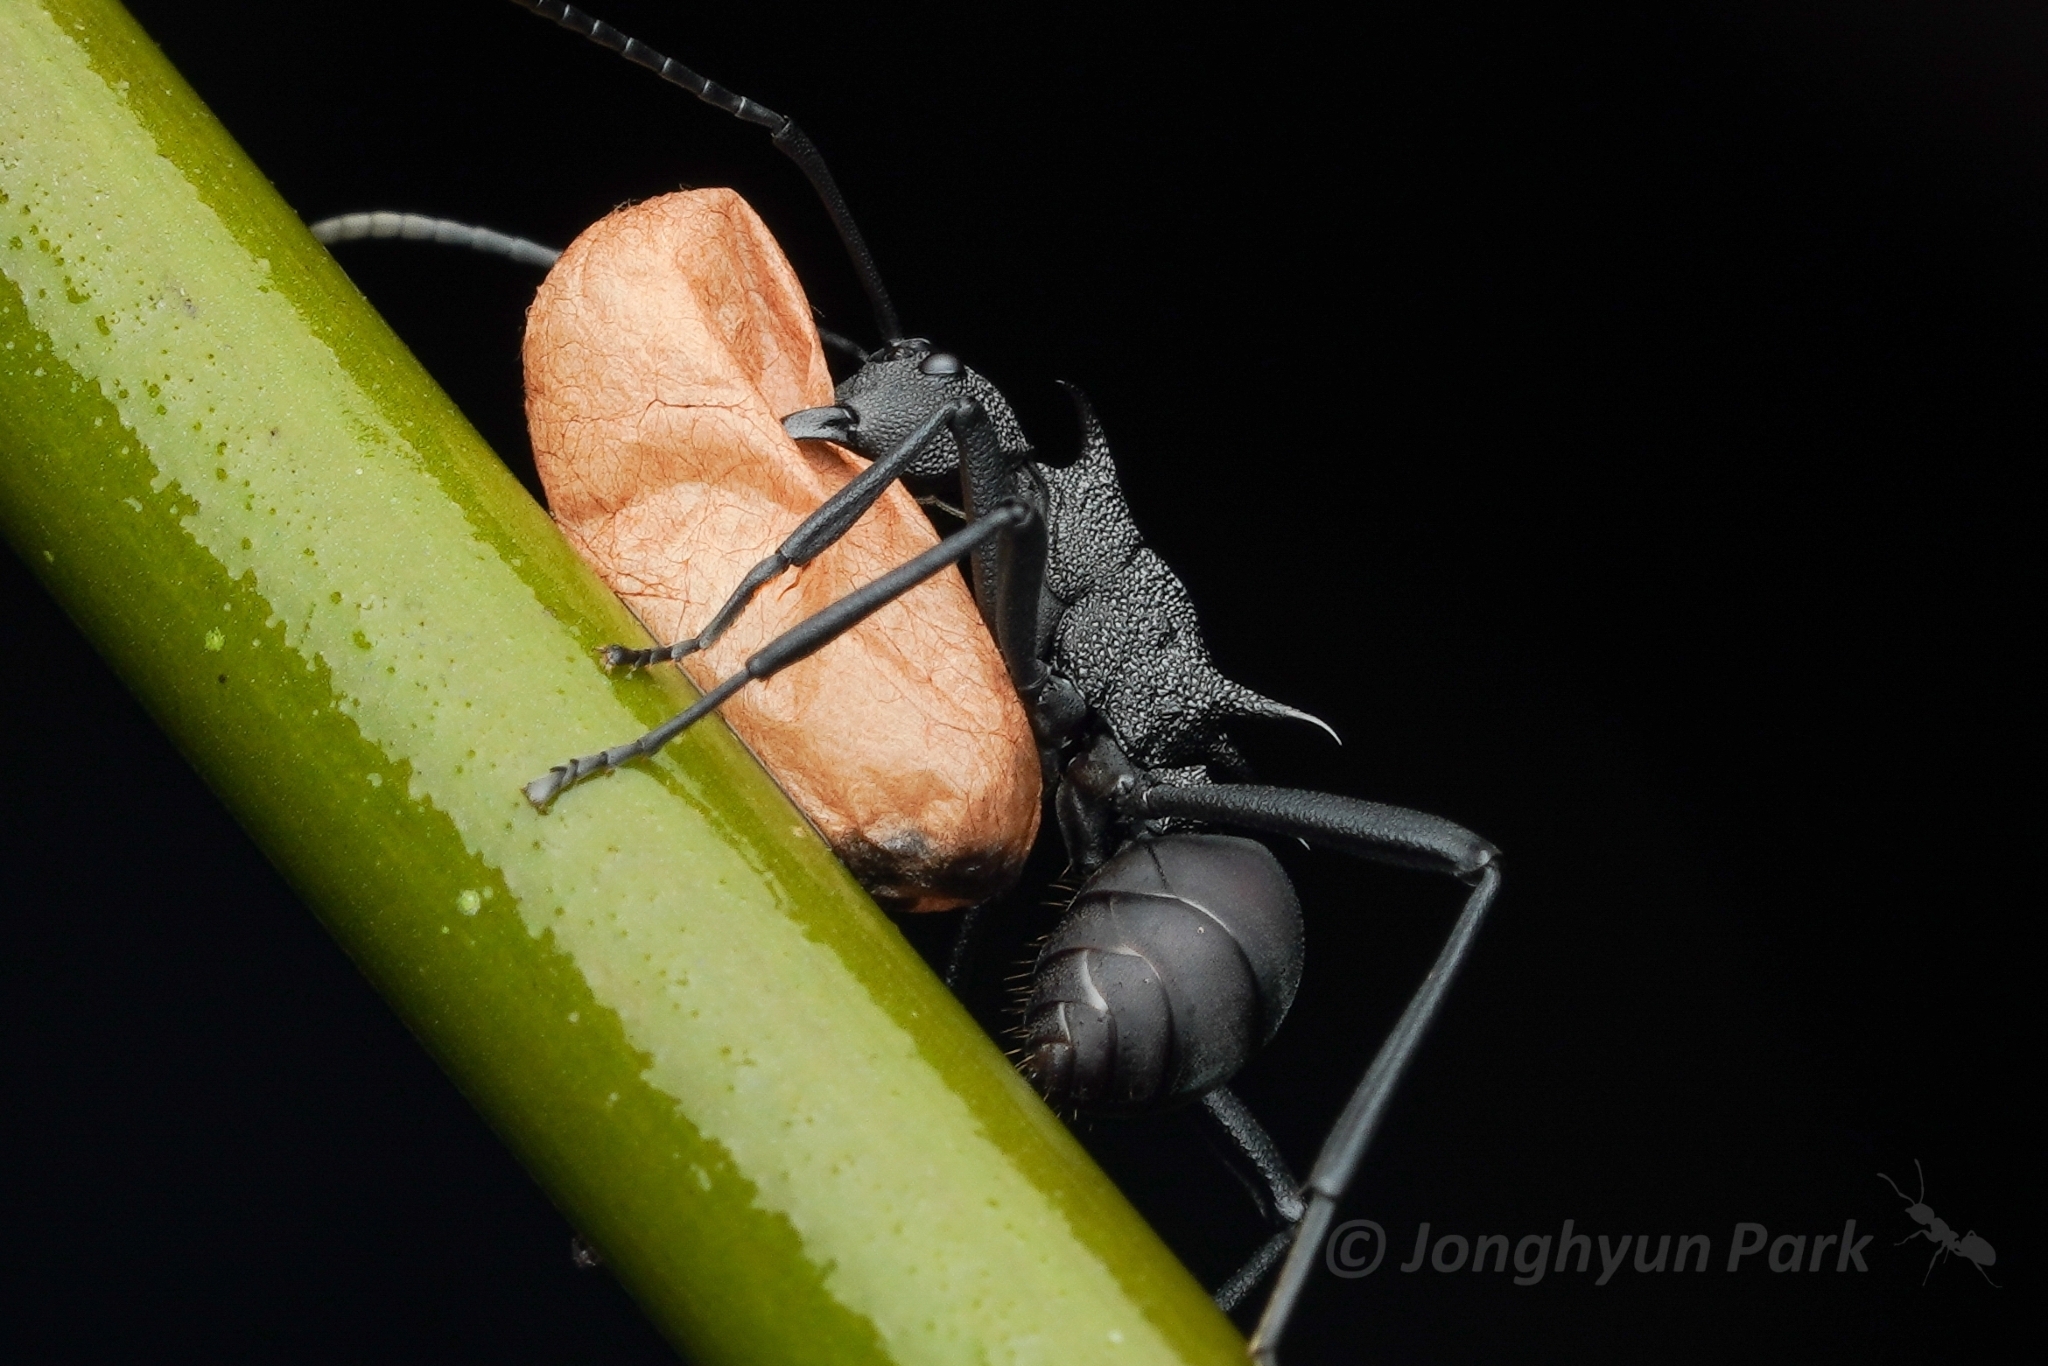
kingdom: Animalia
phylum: Arthropoda
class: Insecta
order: Hymenoptera
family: Formicidae
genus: Polyrhachis
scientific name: Polyrhachis armata
